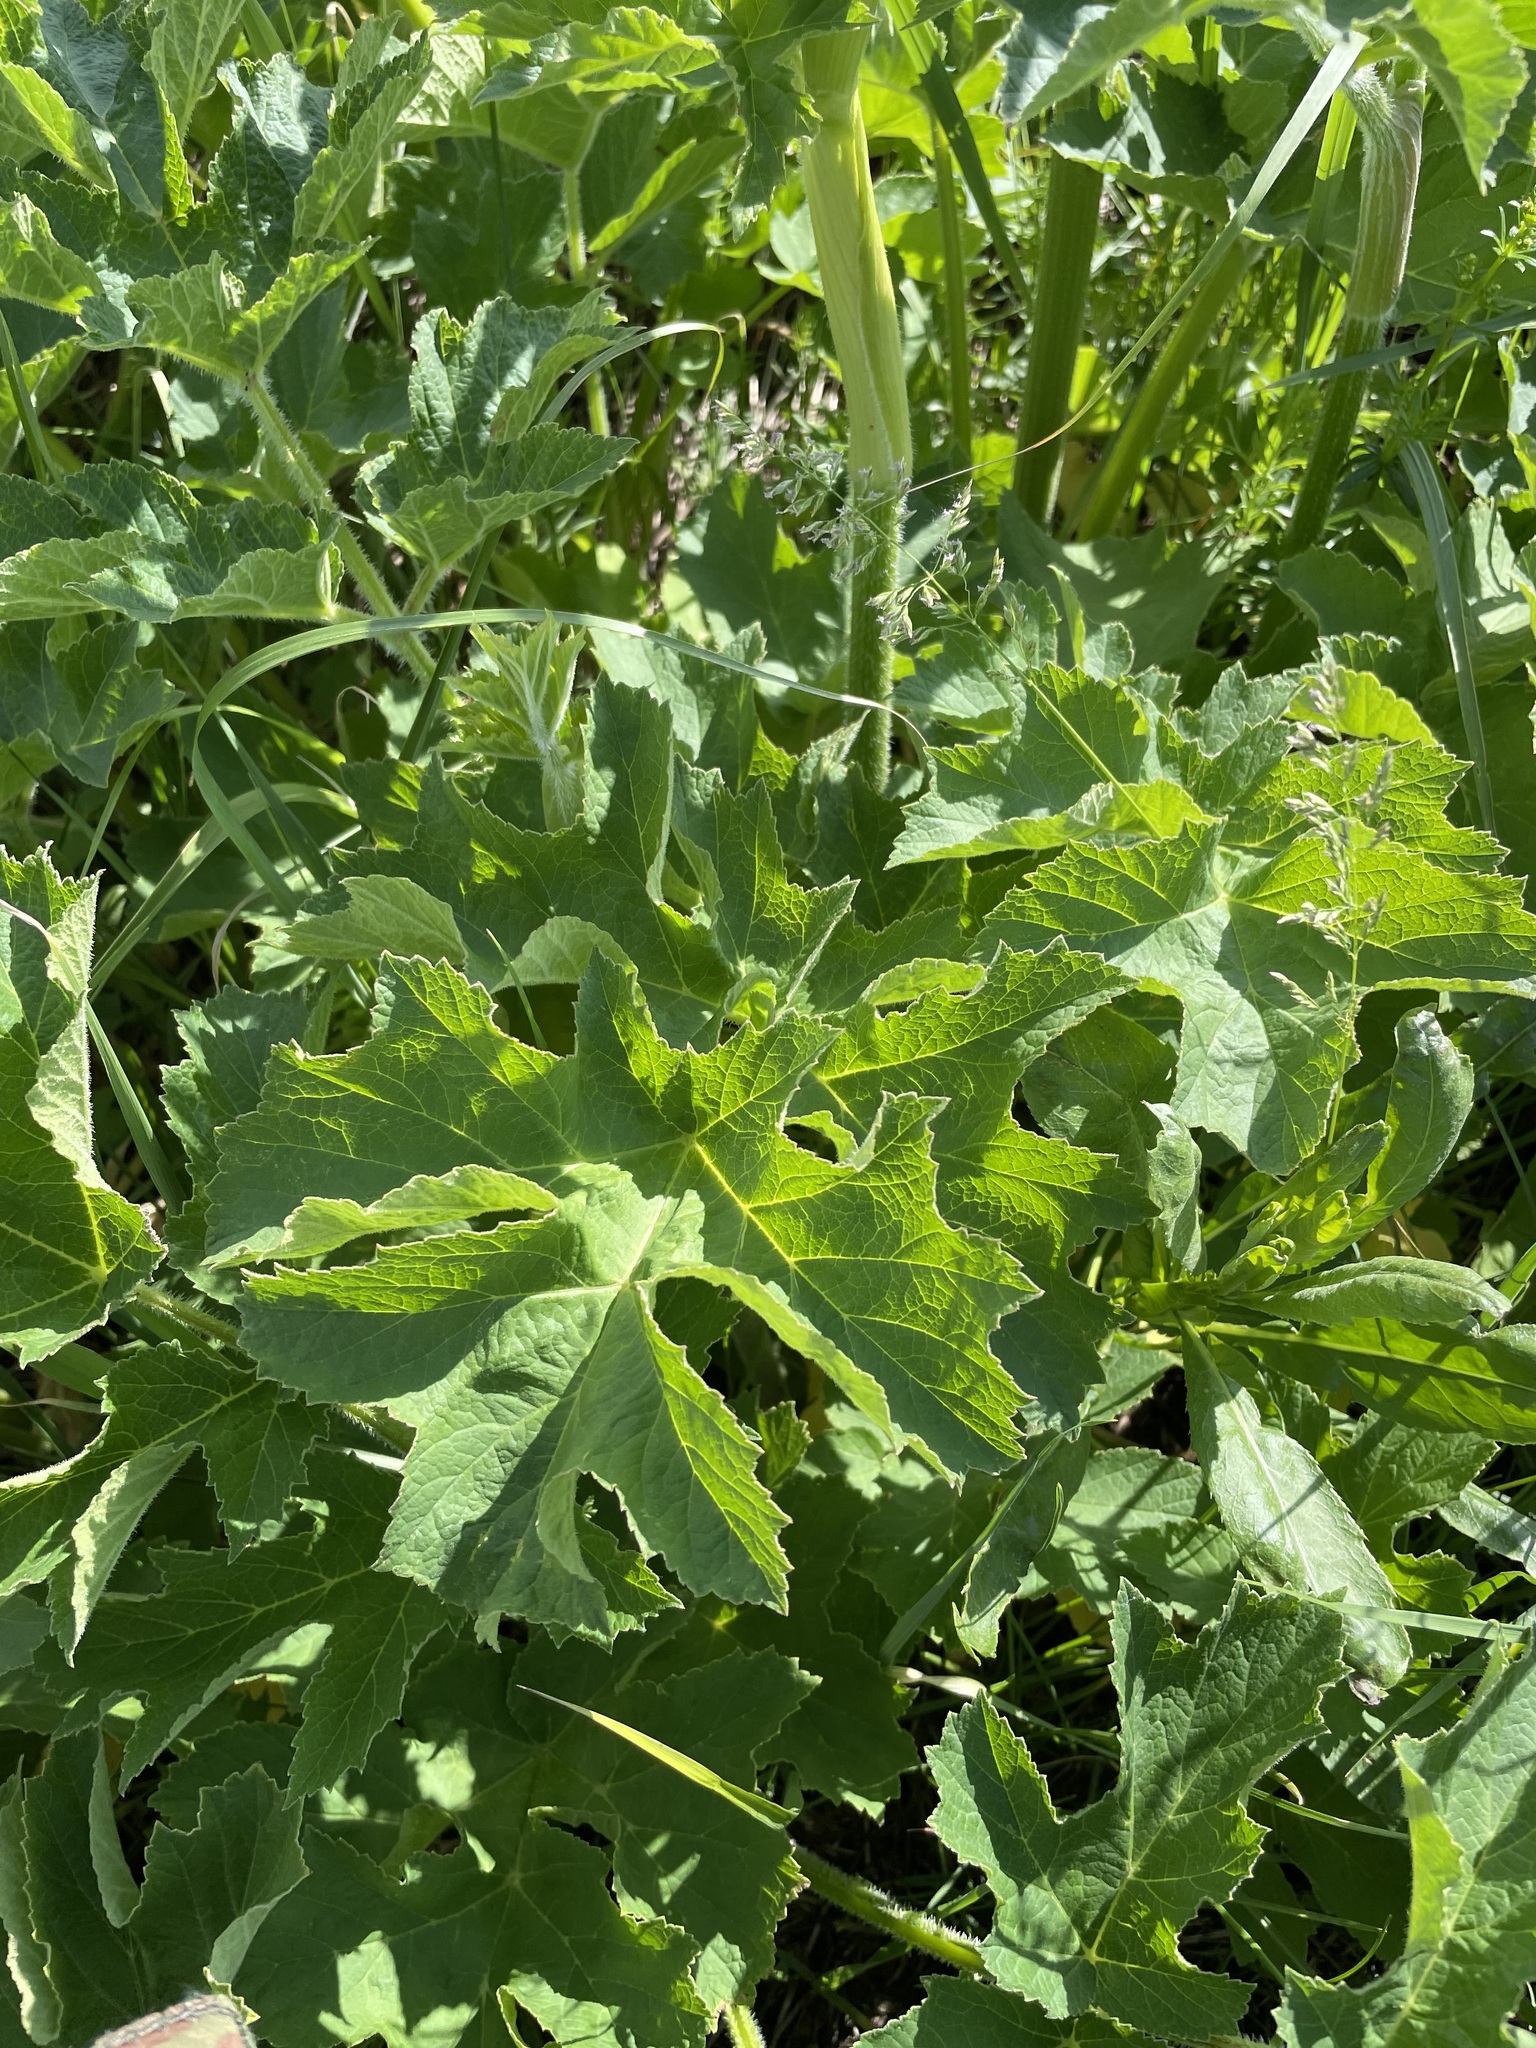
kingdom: Plantae
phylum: Tracheophyta
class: Magnoliopsida
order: Apiales
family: Apiaceae
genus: Heracleum
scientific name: Heracleum sphondylium
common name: Hogweed
